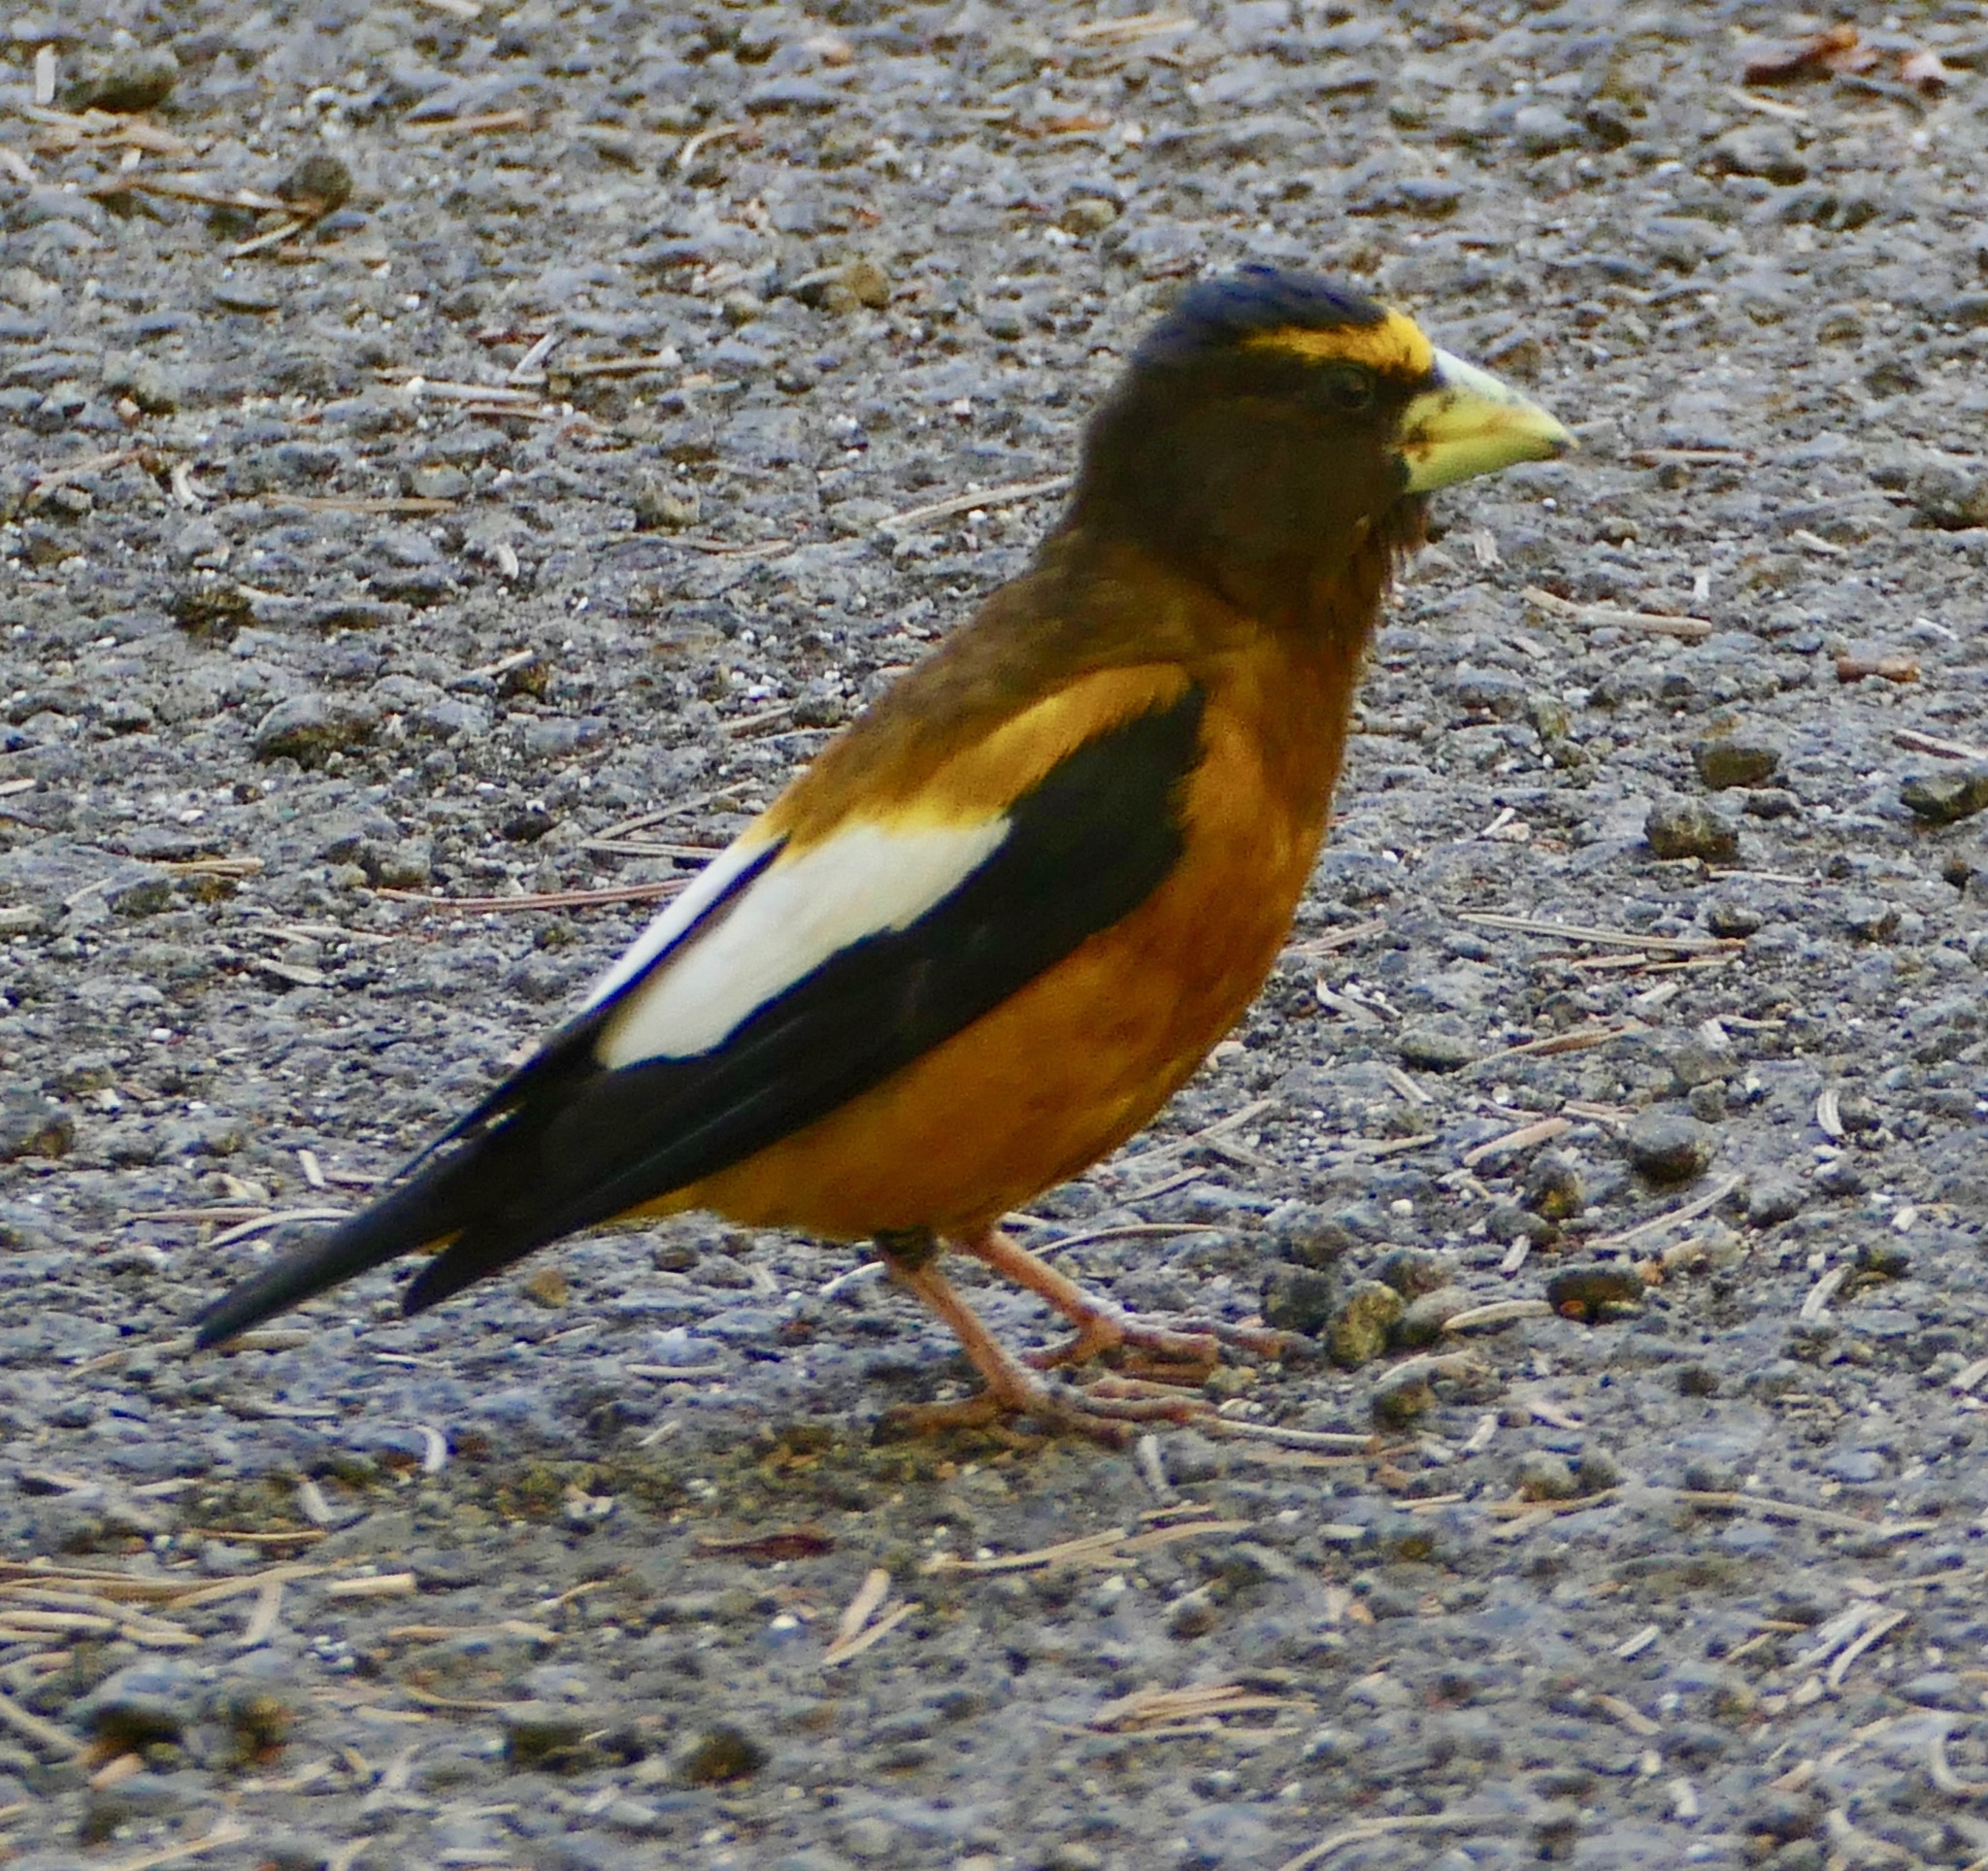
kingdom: Animalia
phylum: Chordata
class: Aves
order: Passeriformes
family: Fringillidae
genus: Hesperiphona
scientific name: Hesperiphona vespertina
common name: Evening grosbeak
